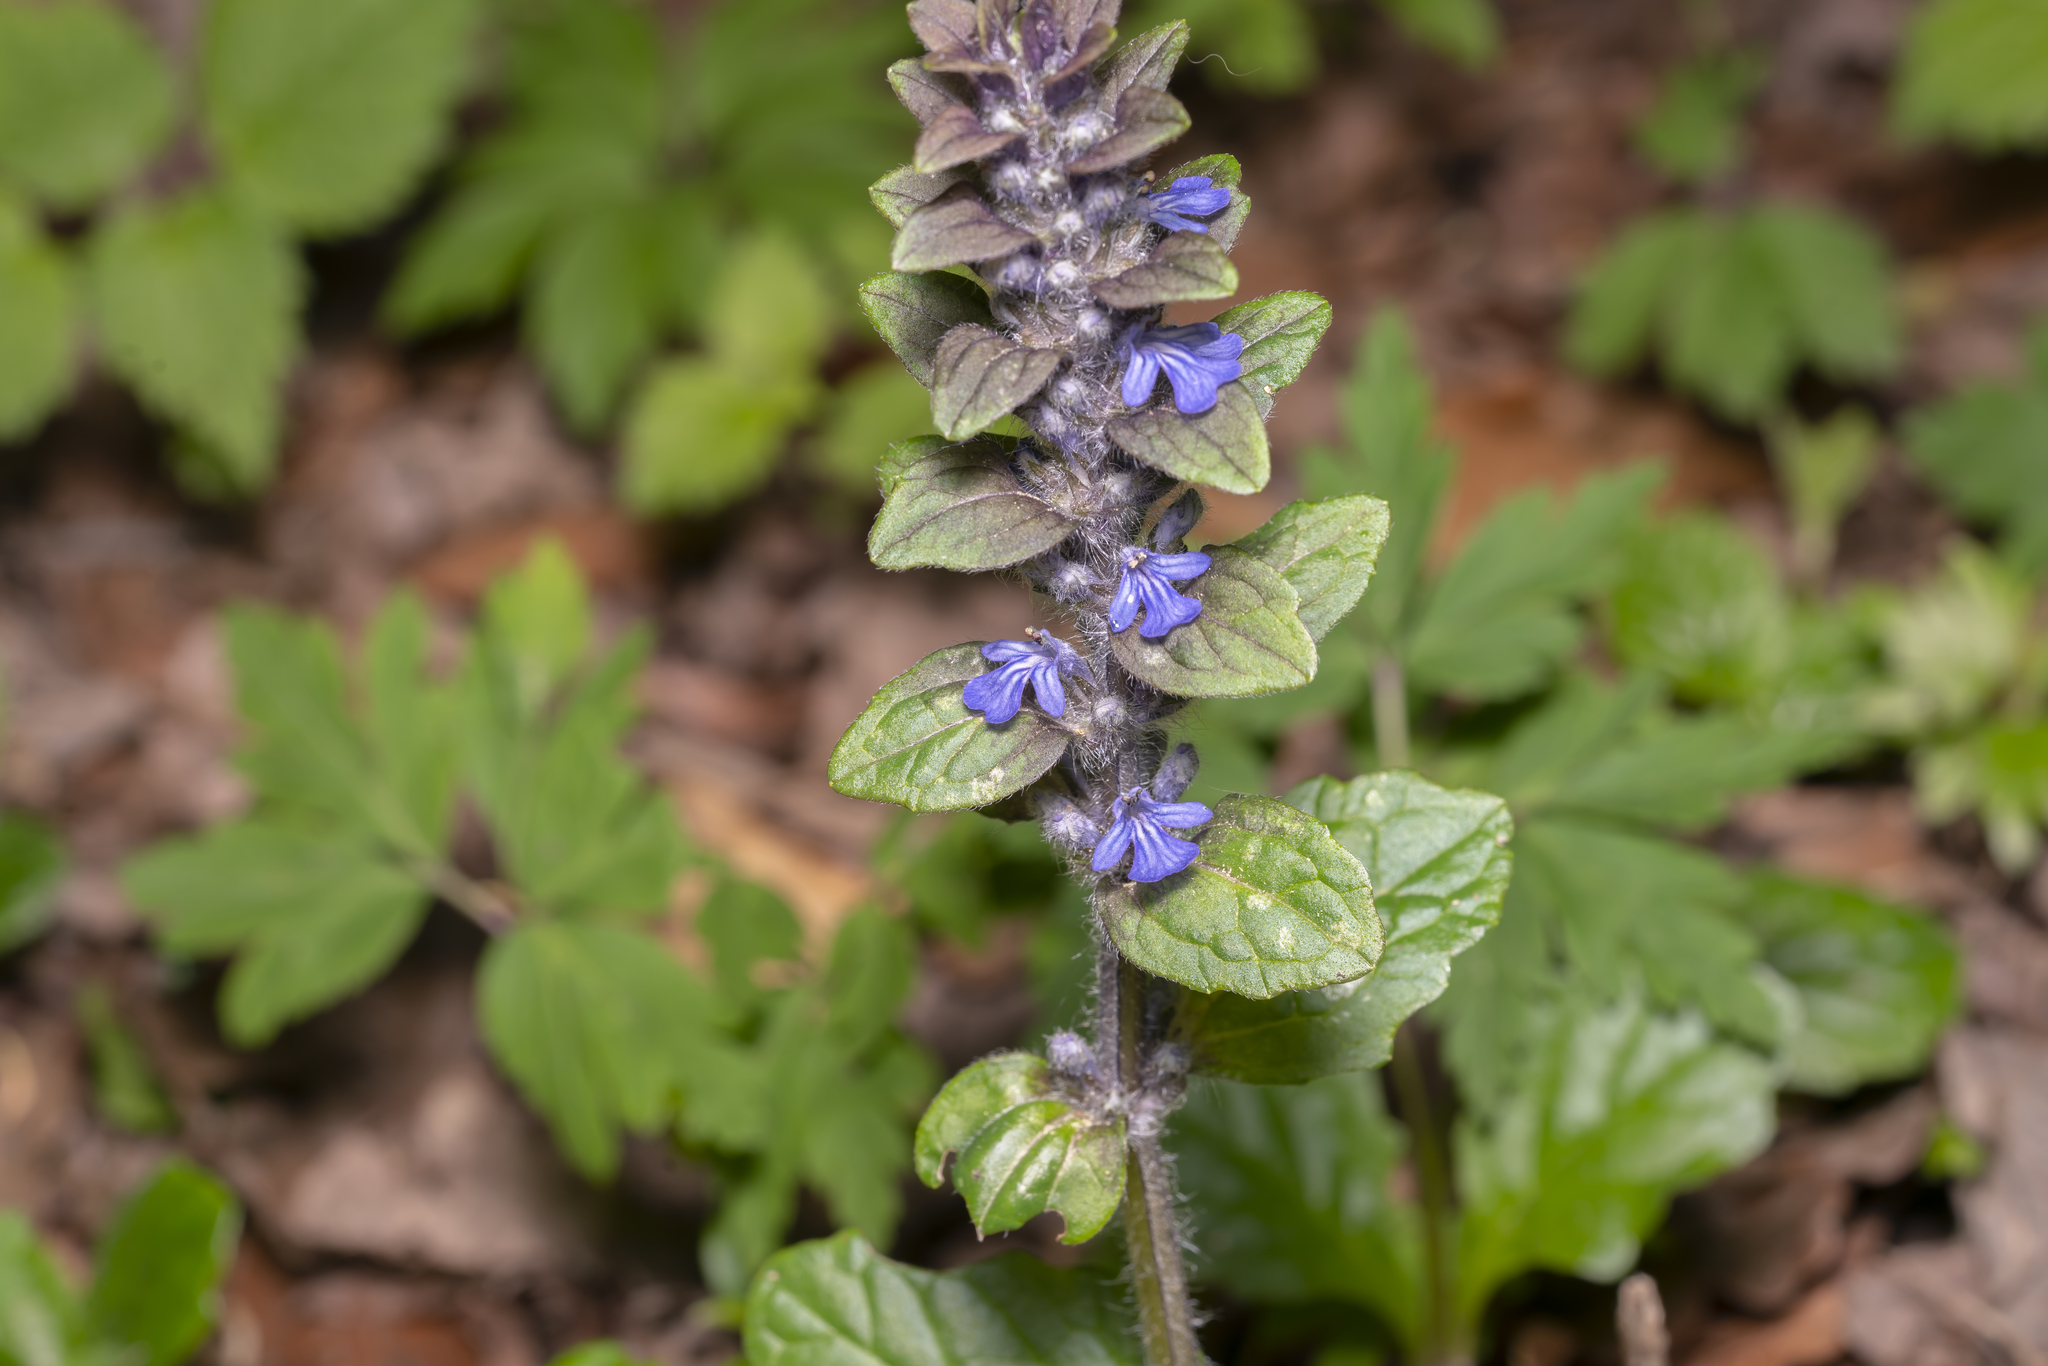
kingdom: Plantae
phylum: Tracheophyta
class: Magnoliopsida
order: Lamiales
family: Lamiaceae
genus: Ajuga
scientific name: Ajuga reptans
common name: Bugle
